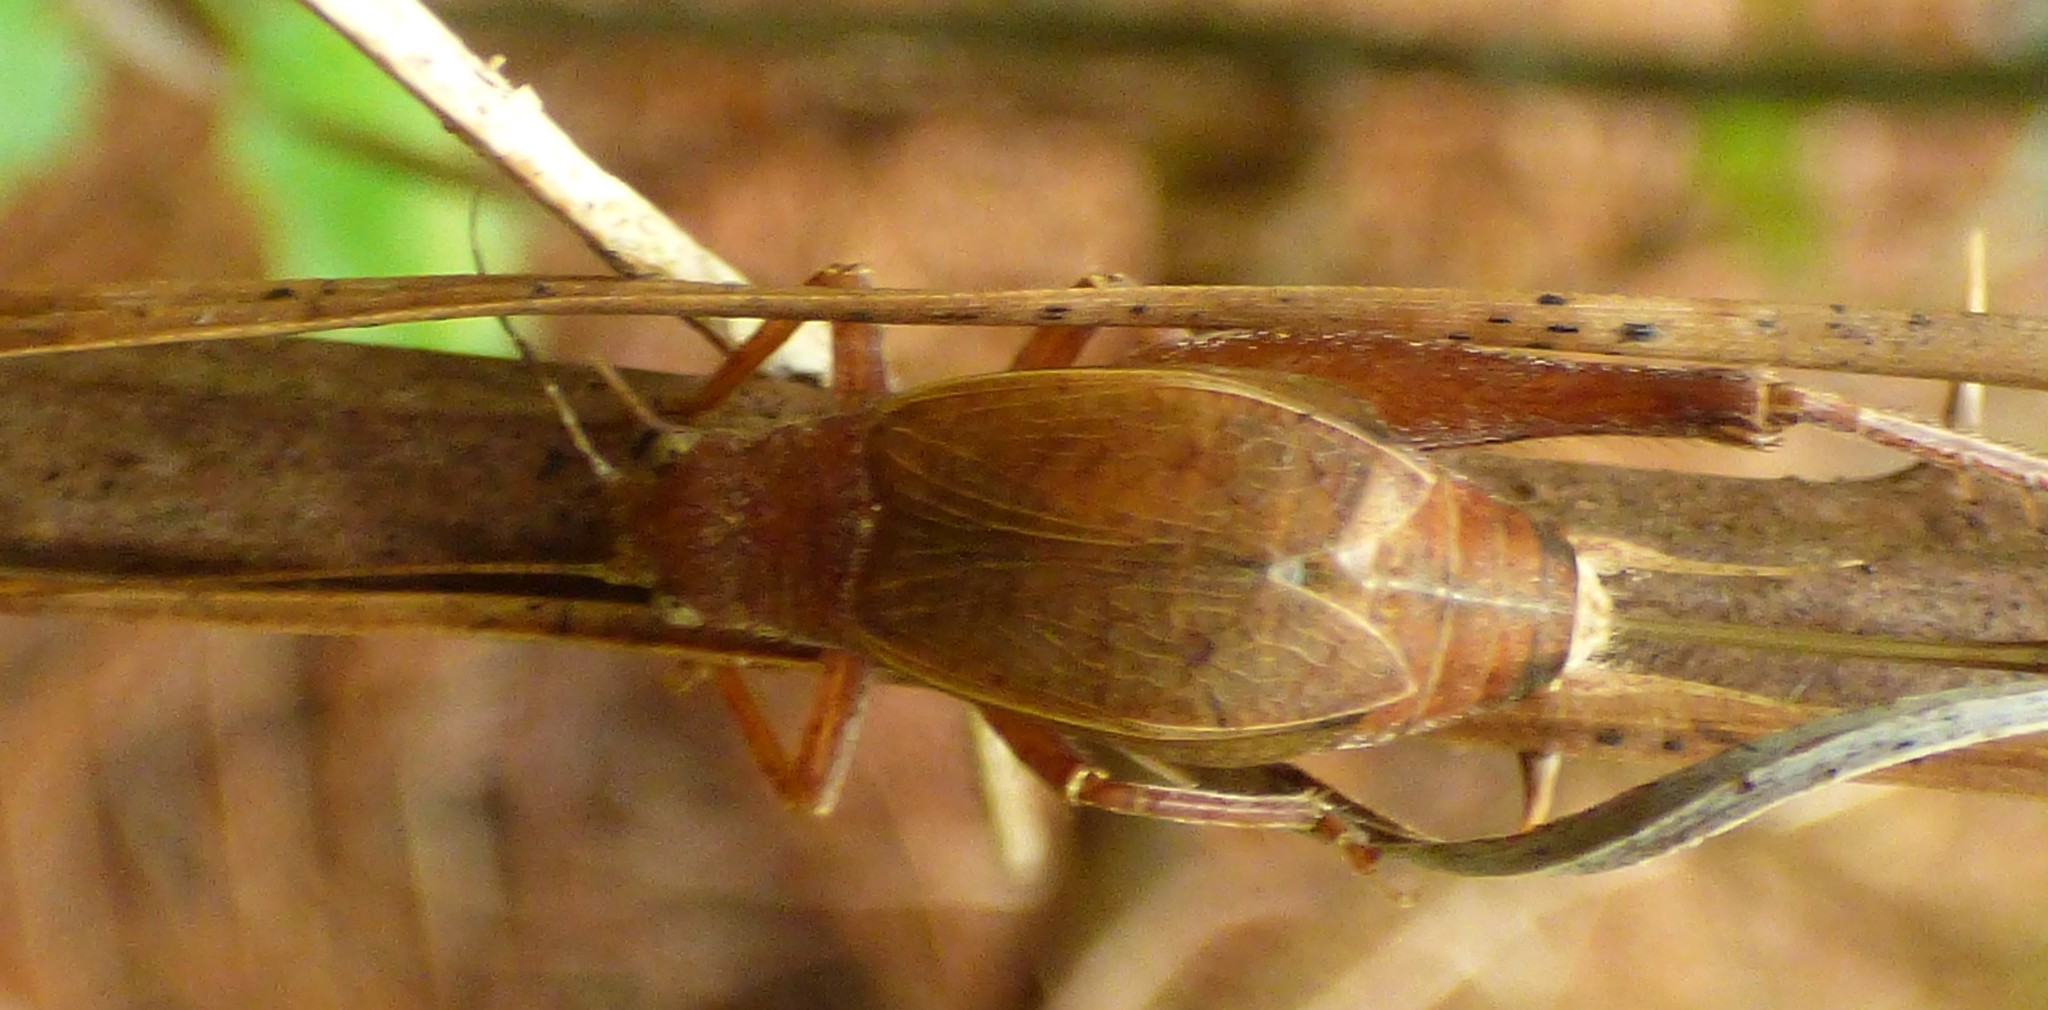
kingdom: Animalia
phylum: Arthropoda
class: Insecta
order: Orthoptera
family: Gryllidae
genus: Hapithus
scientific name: Hapithus agitator
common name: Restless bush cricket
